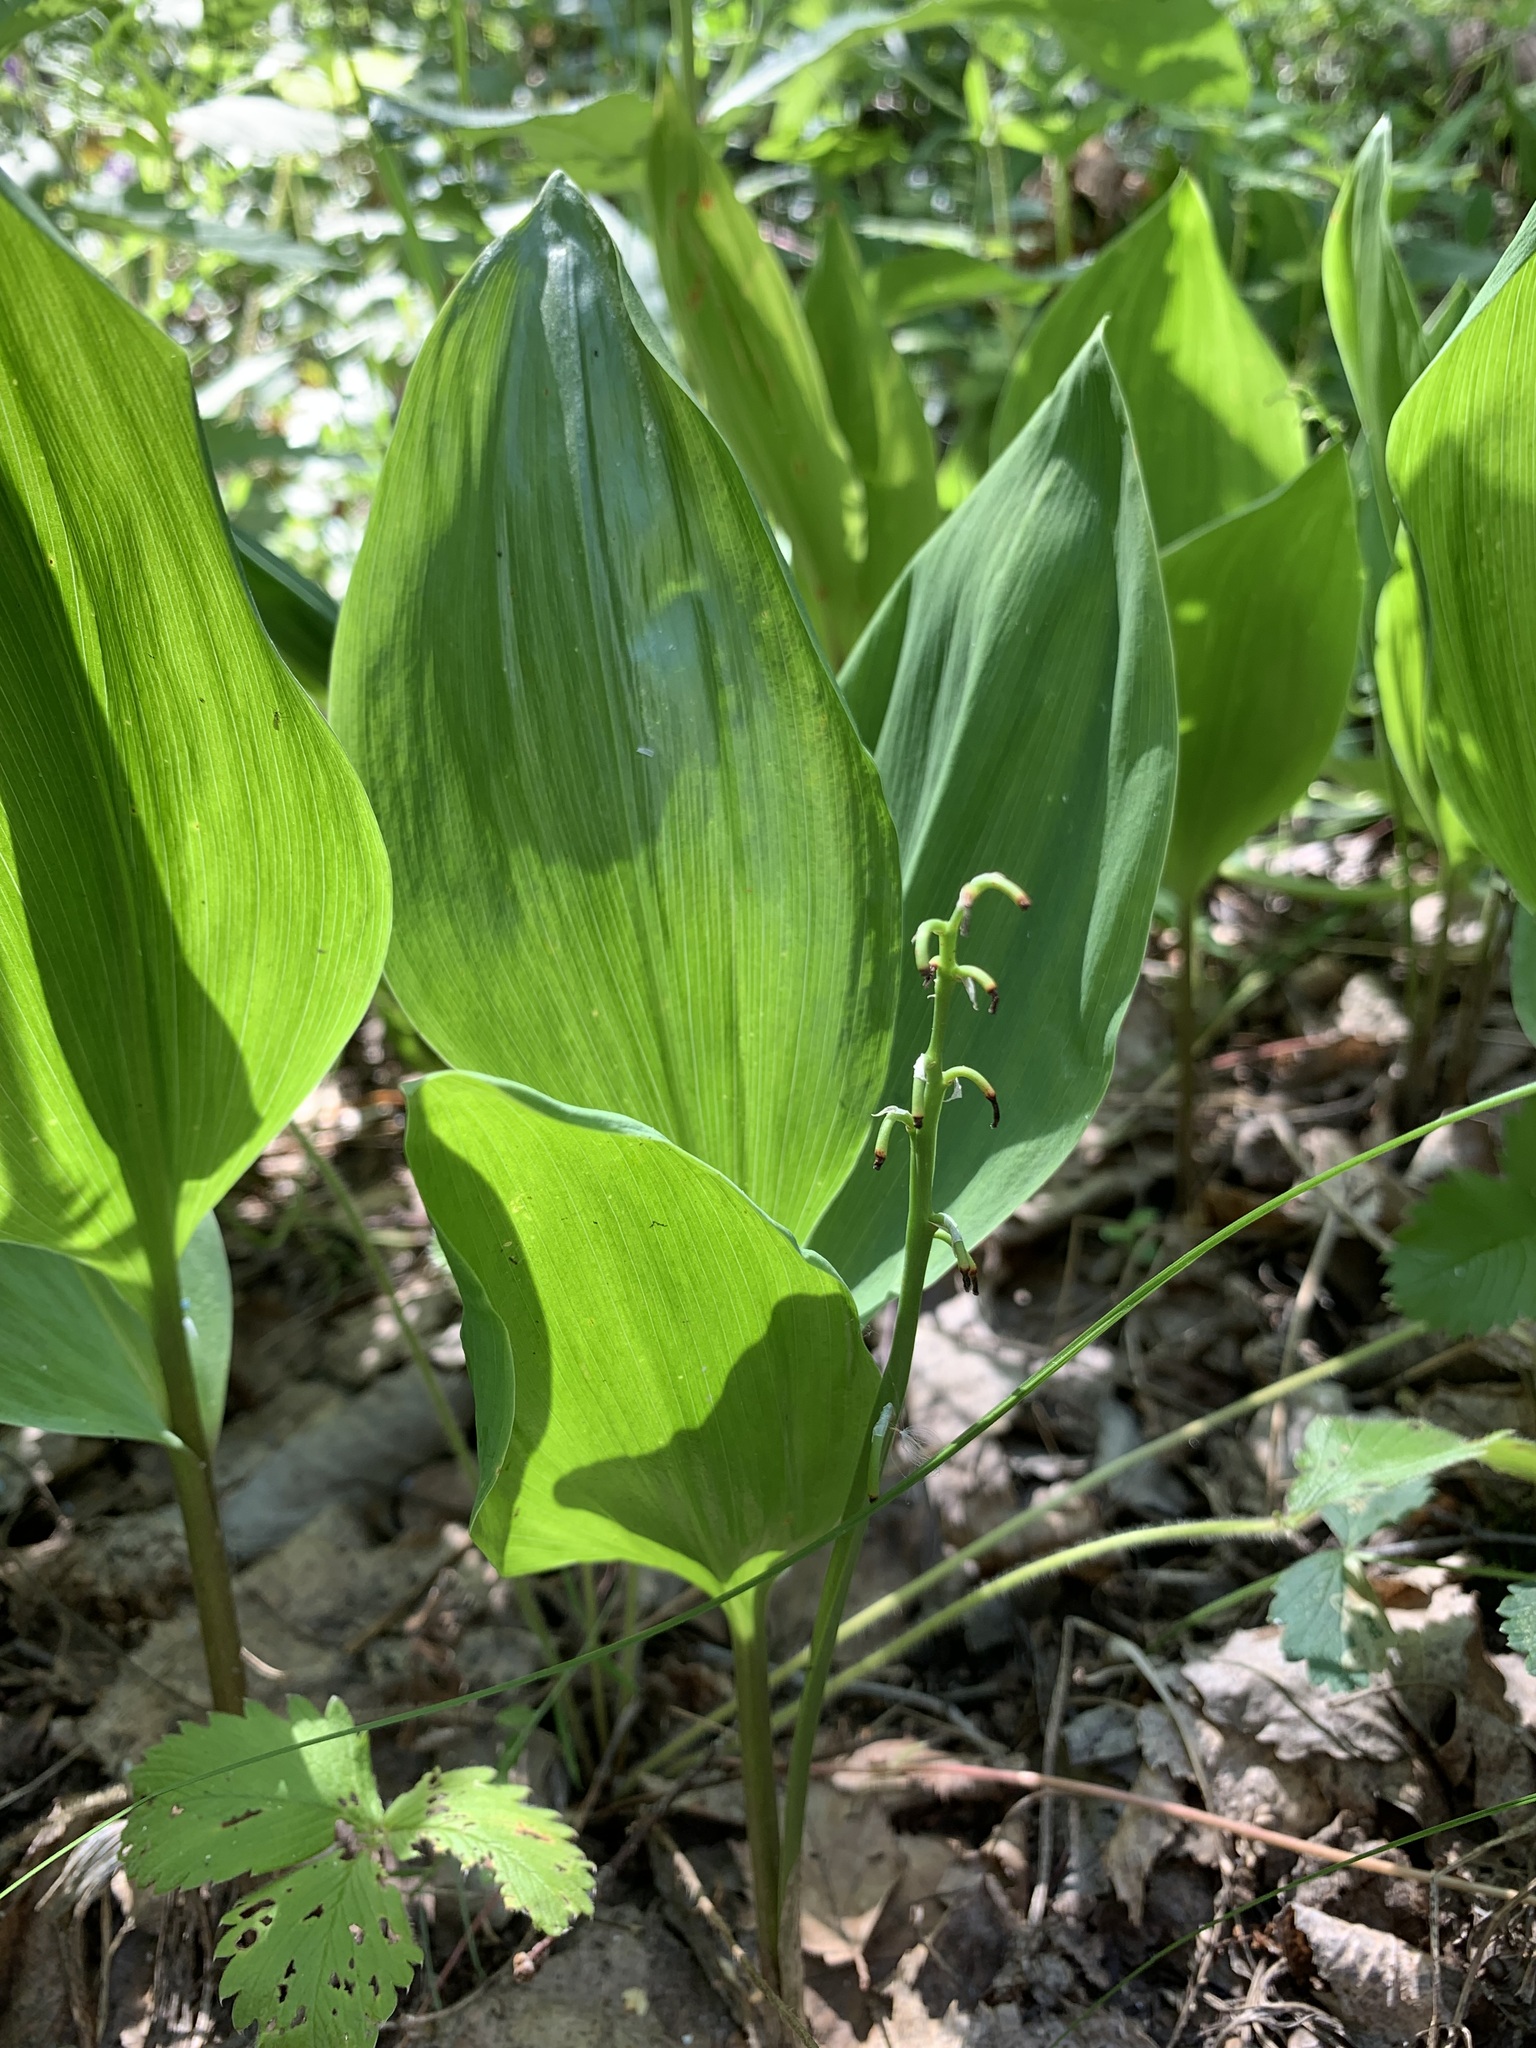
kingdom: Plantae
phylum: Tracheophyta
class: Liliopsida
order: Asparagales
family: Asparagaceae
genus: Convallaria
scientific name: Convallaria majalis
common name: Lily-of-the-valley
